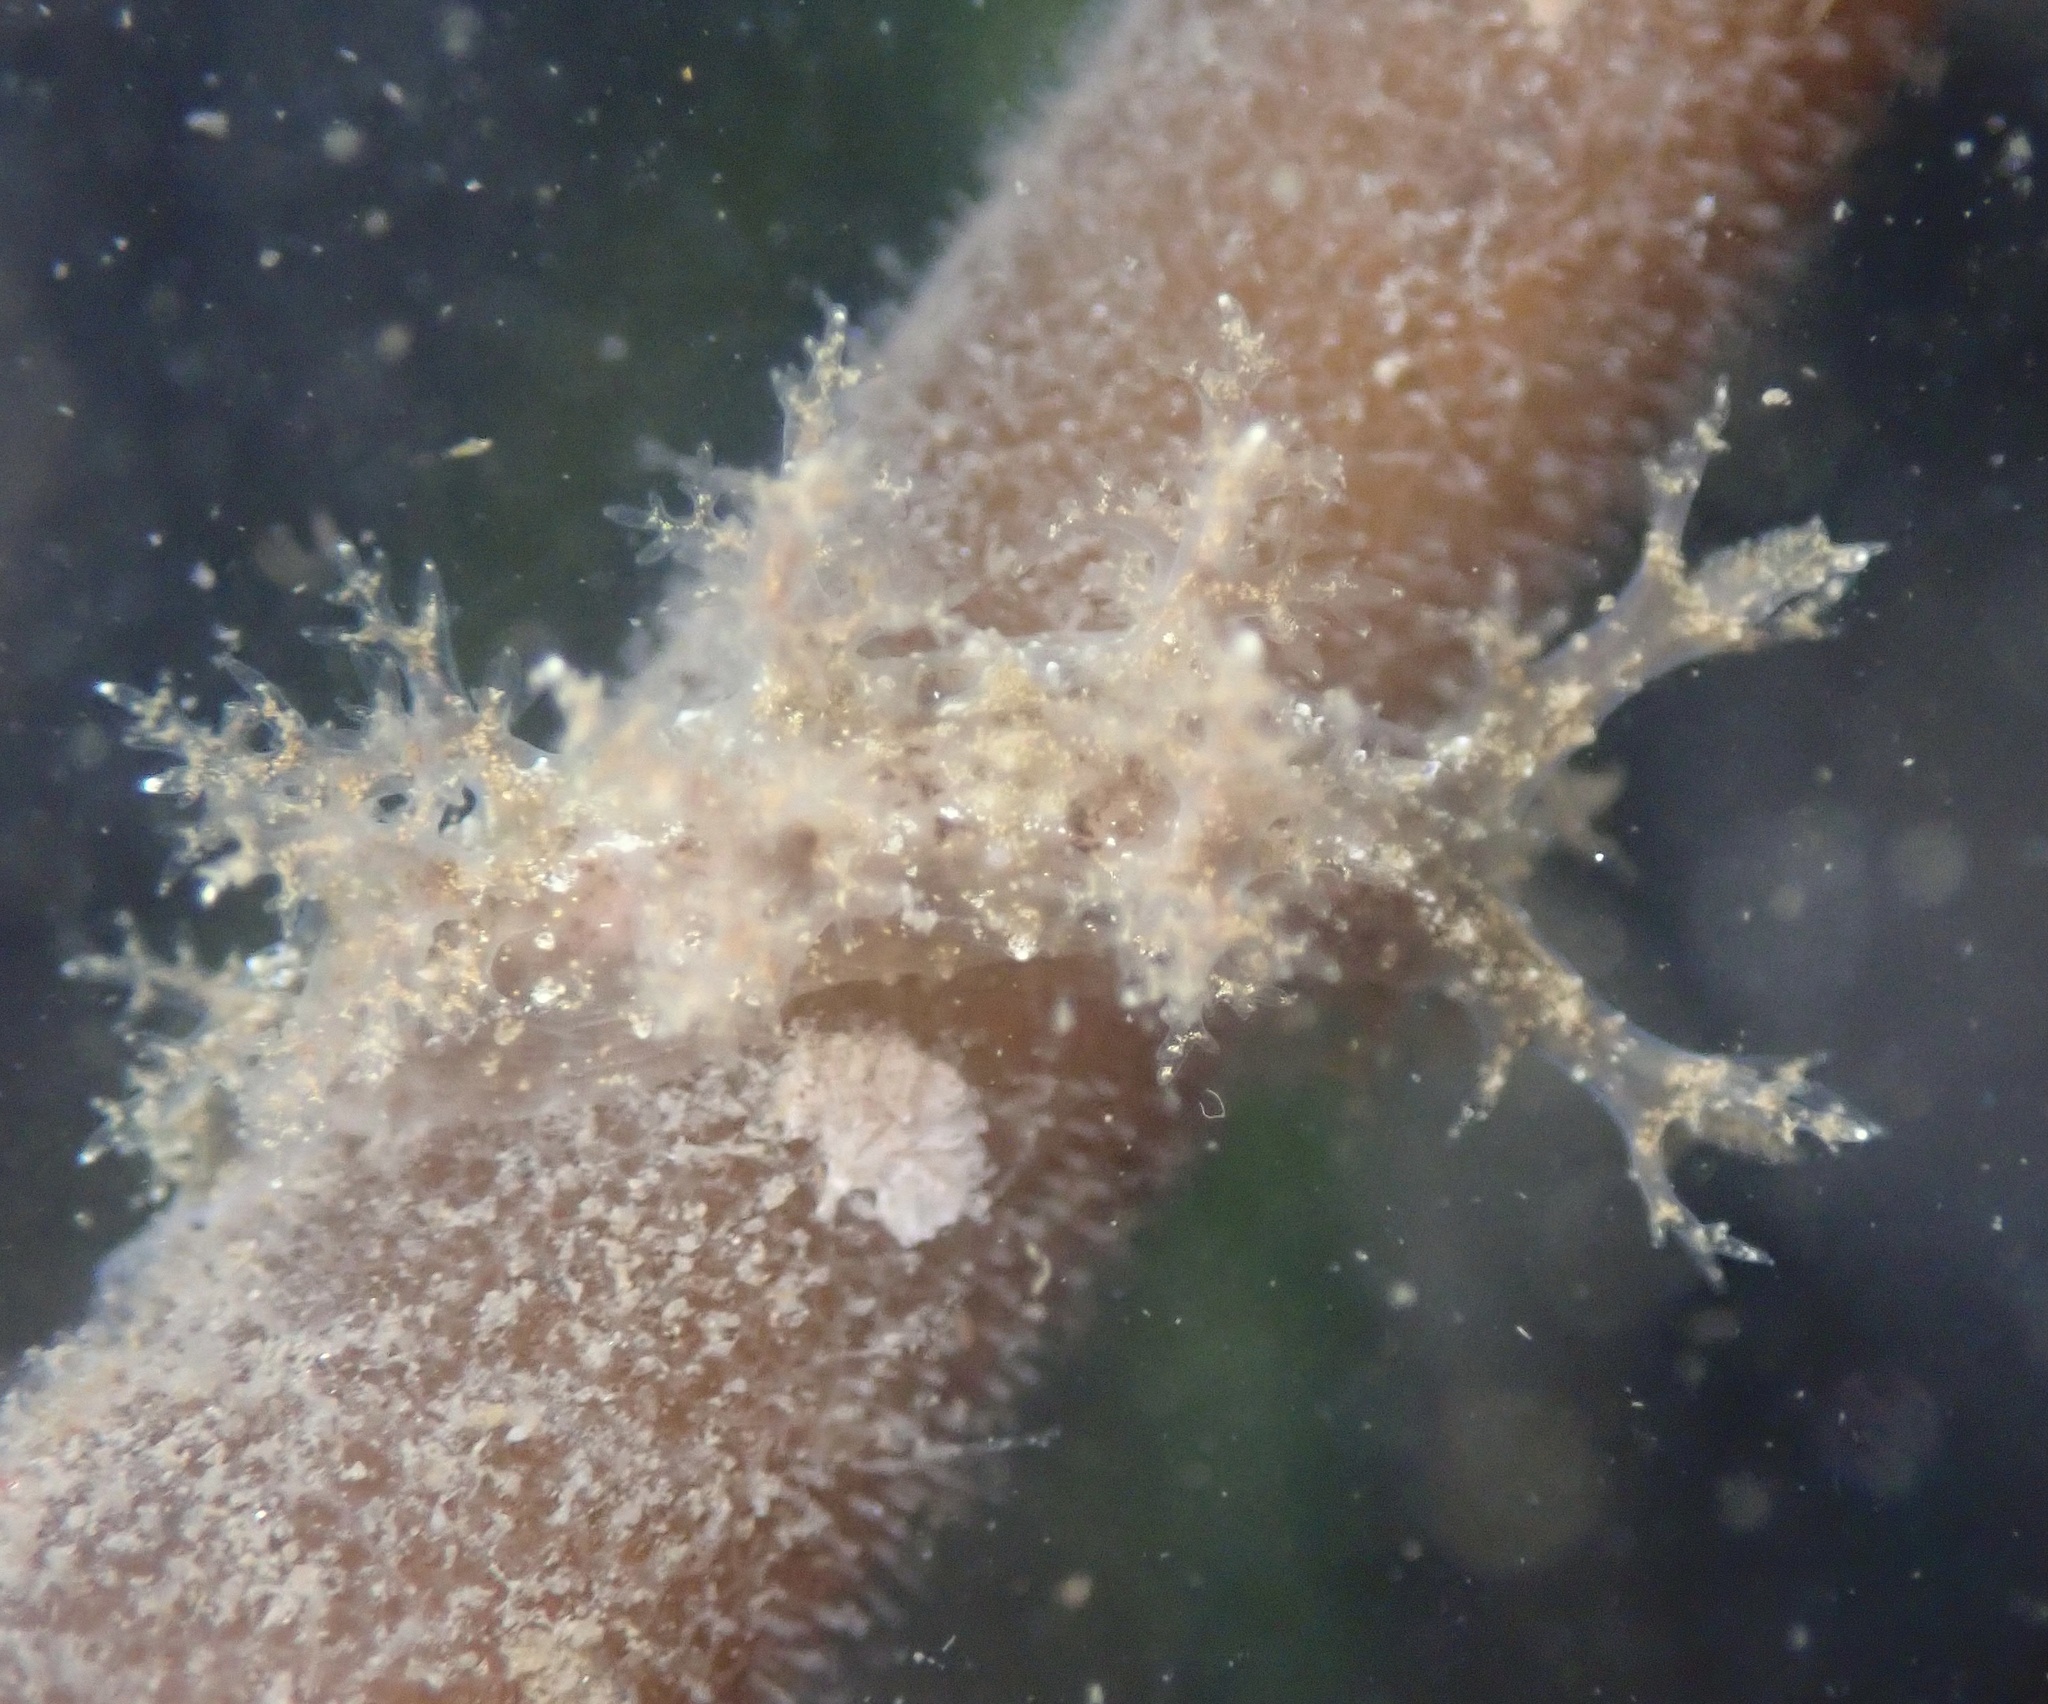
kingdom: Animalia
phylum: Mollusca
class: Gastropoda
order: Nudibranchia
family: Dendronotidae
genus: Dendronotus
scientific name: Dendronotus venustus
